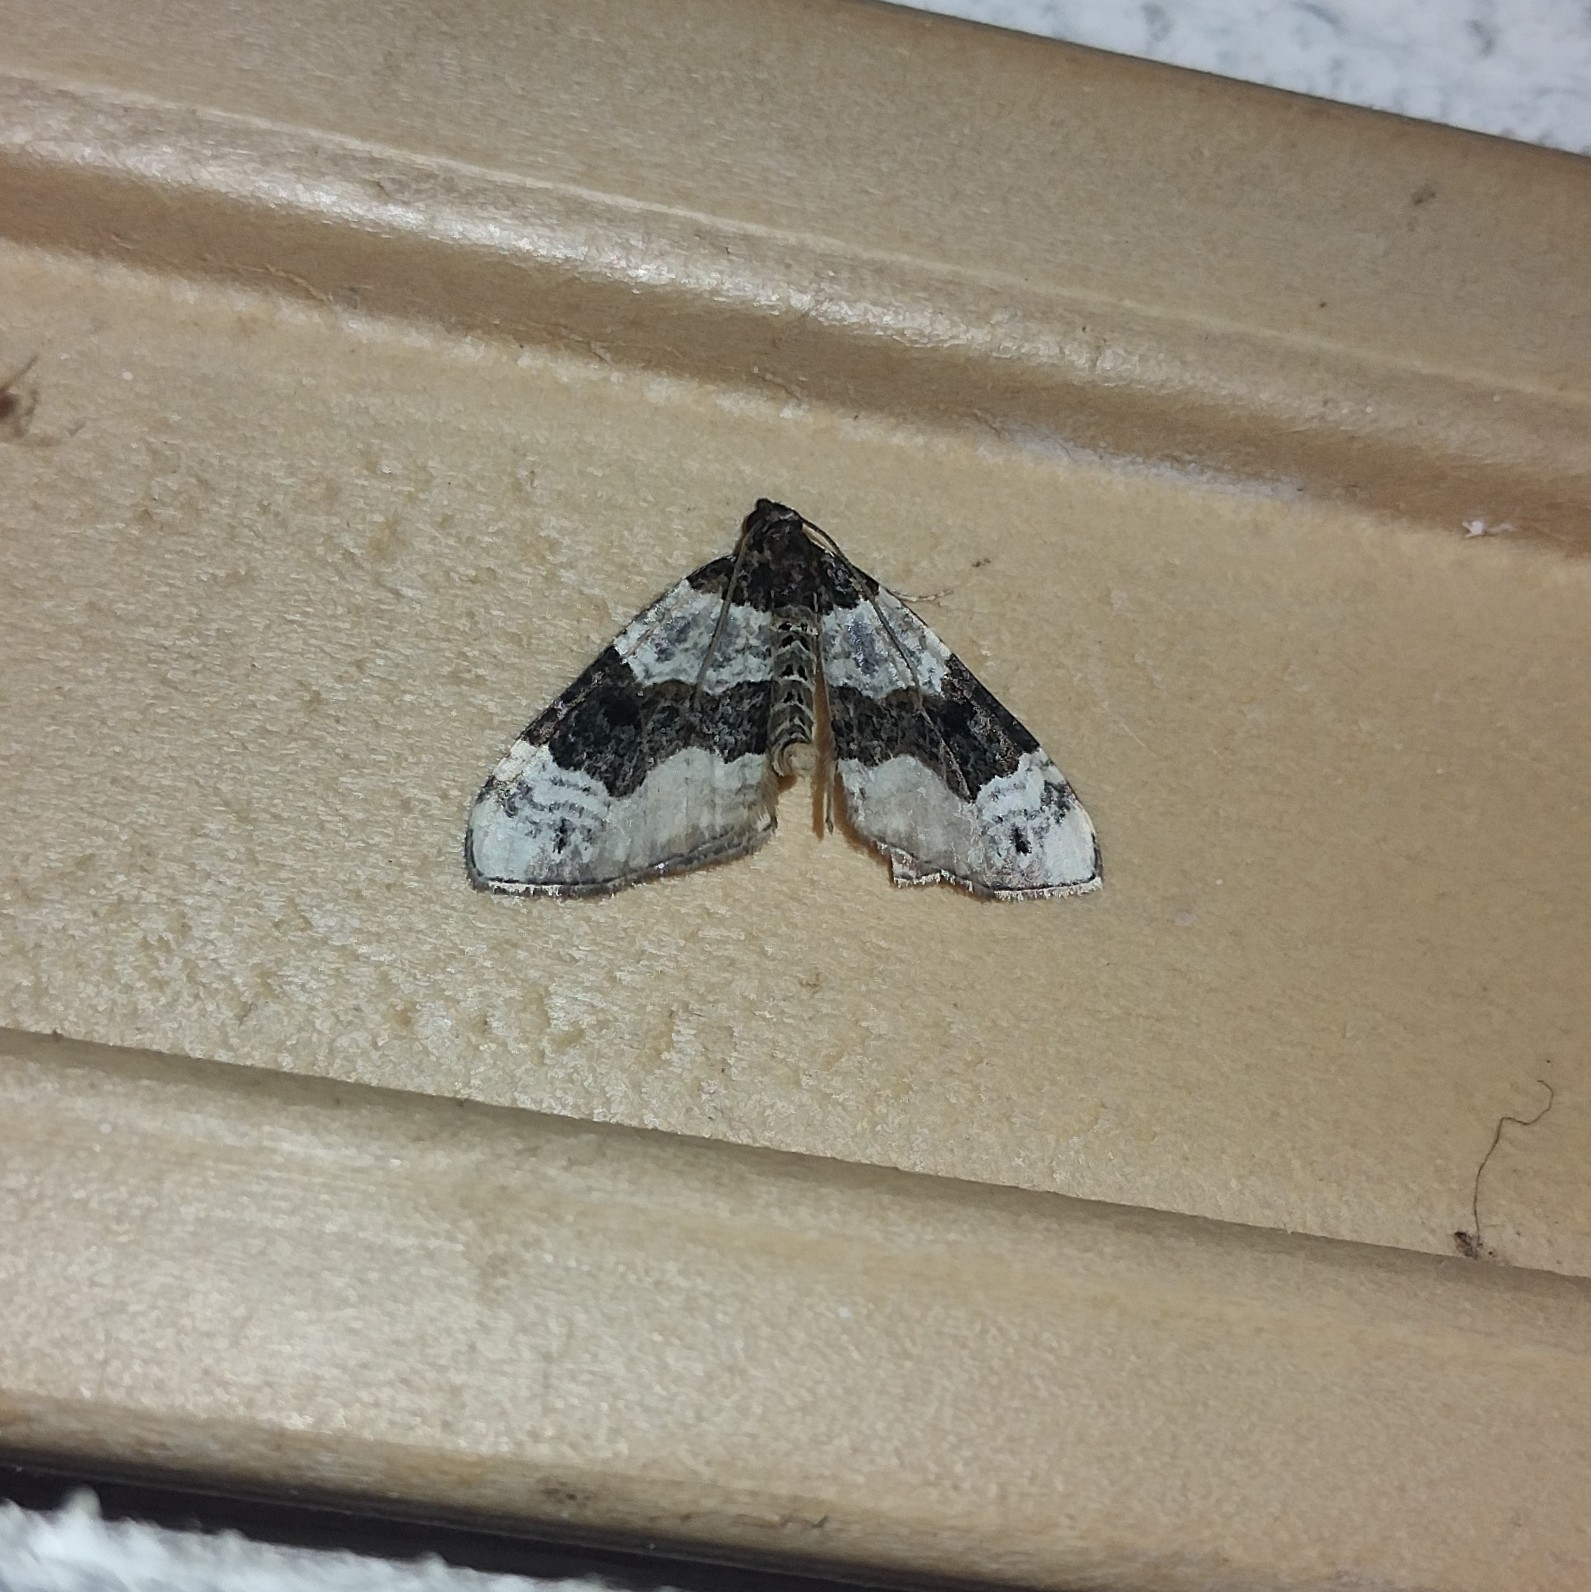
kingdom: Animalia
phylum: Arthropoda
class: Insecta
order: Lepidoptera
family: Geometridae
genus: Cosmorhoe
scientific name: Cosmorhoe ocellata
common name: Purple bar
